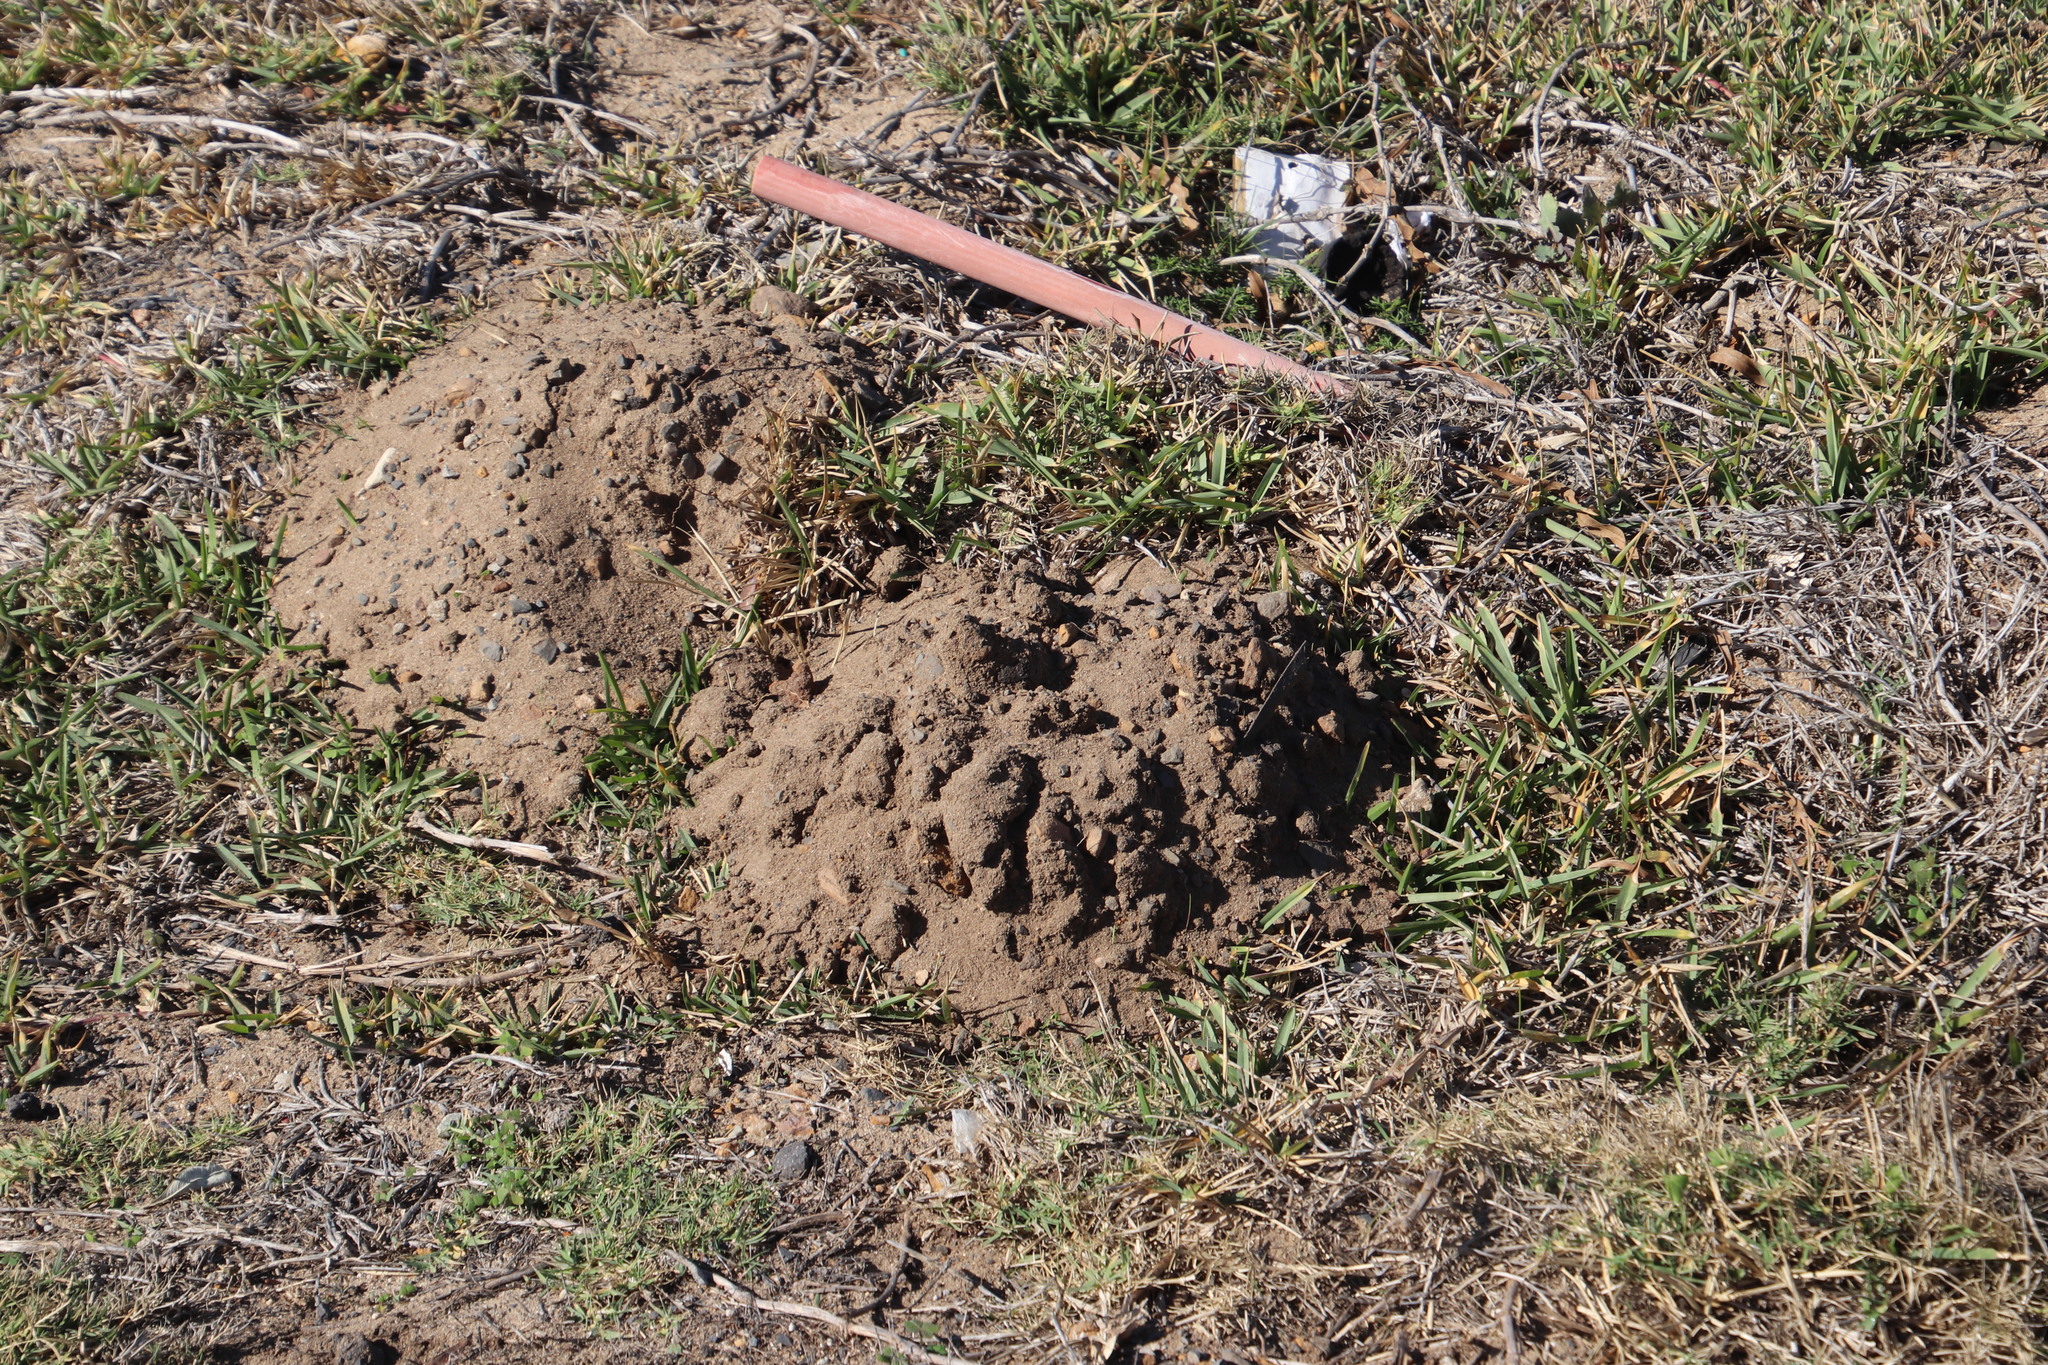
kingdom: Animalia
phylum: Chordata
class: Mammalia
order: Rodentia
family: Bathyergidae
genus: Bathyergus
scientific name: Bathyergus suillus
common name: Cape dune mole rat
